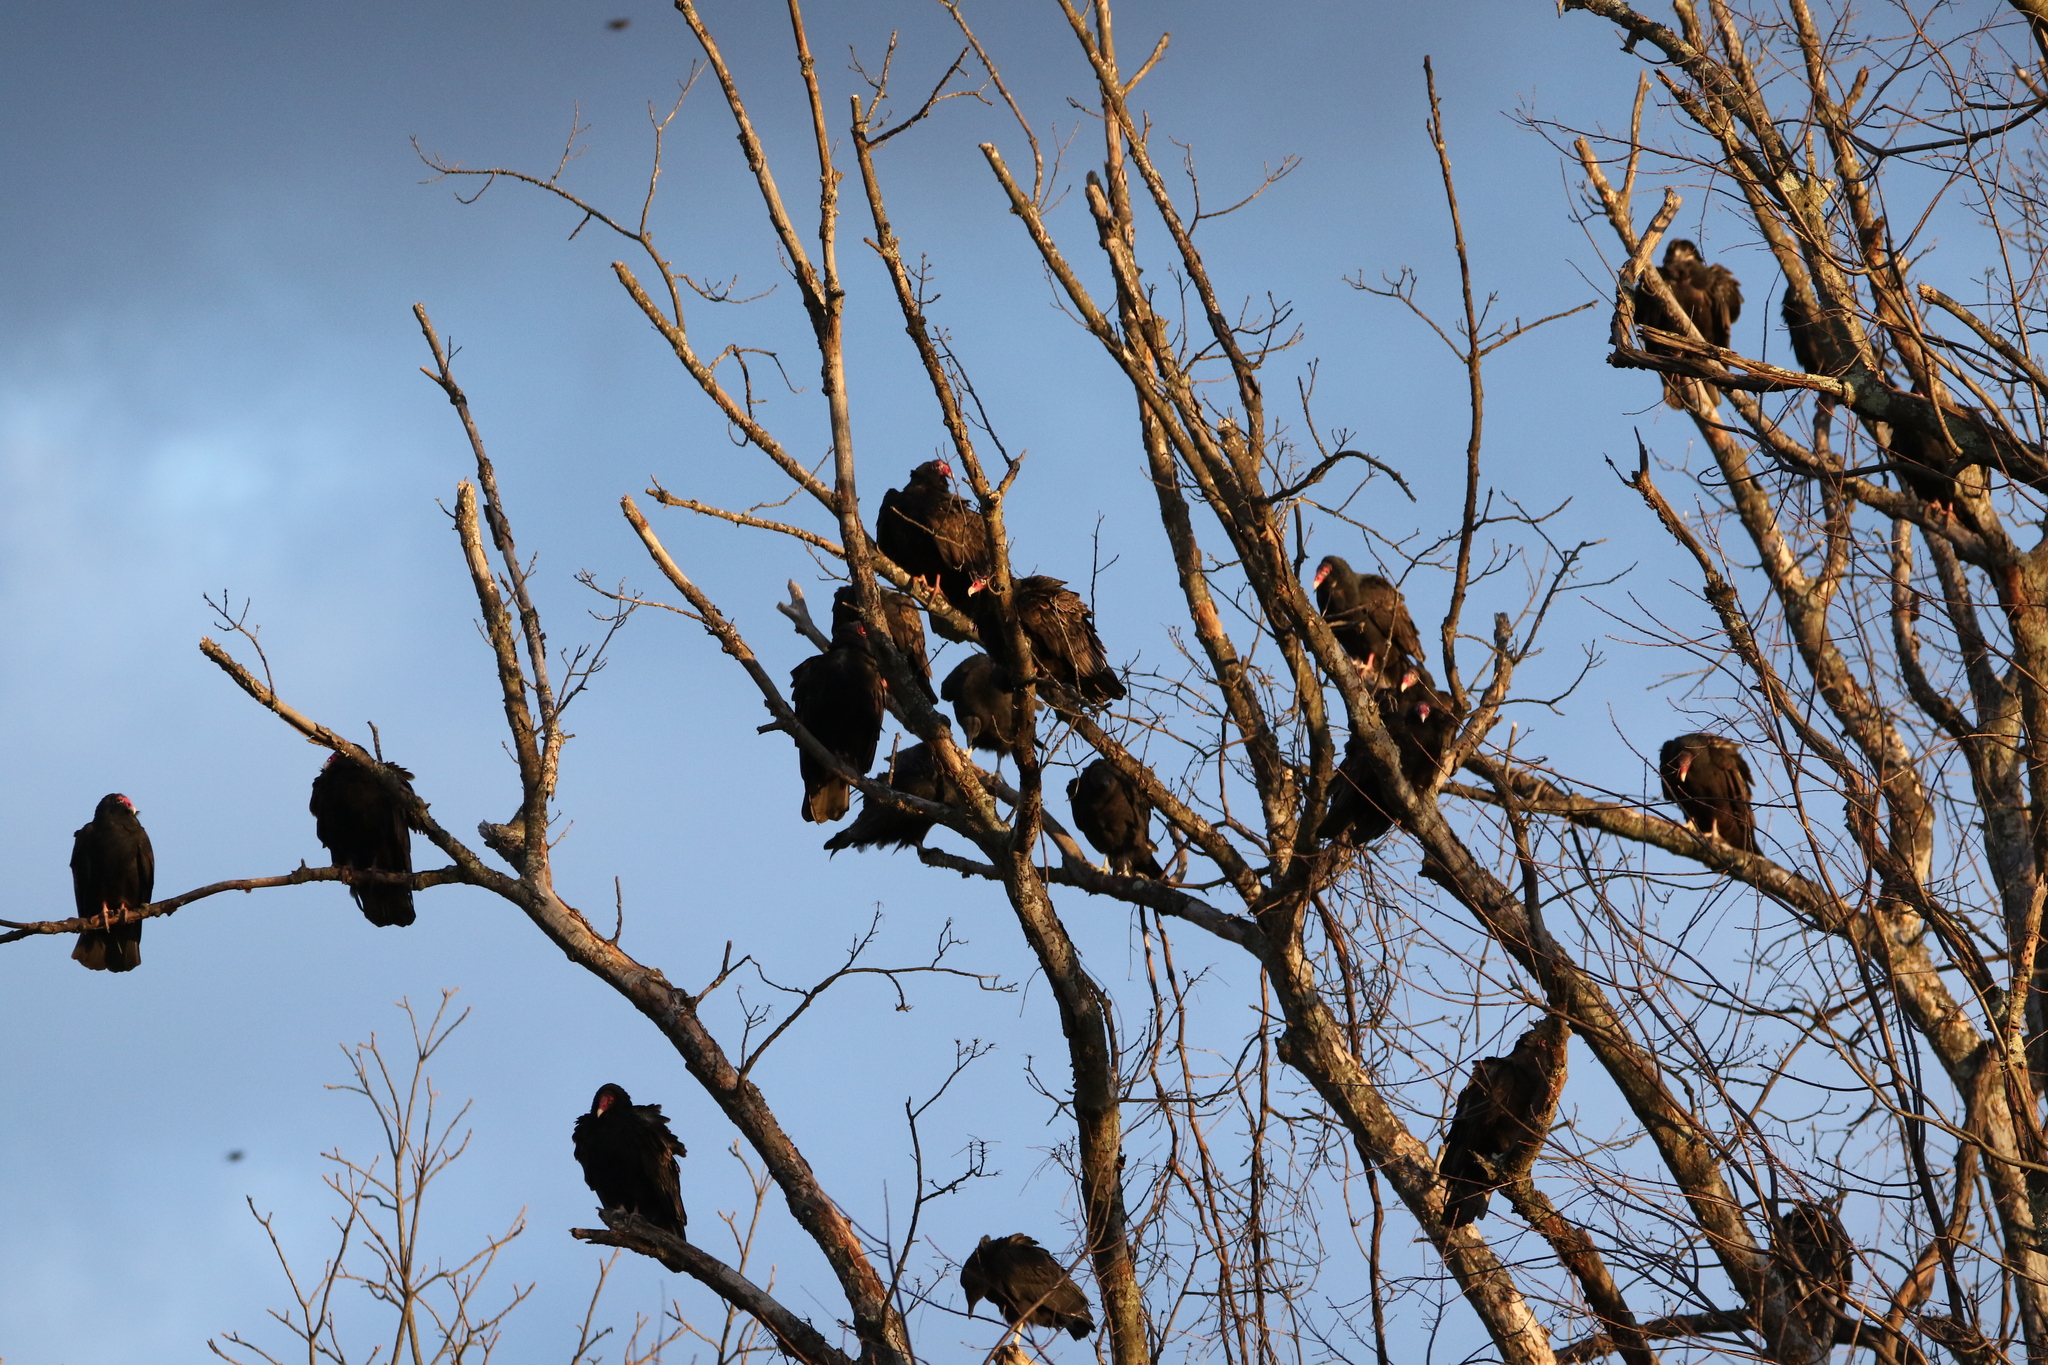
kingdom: Animalia
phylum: Chordata
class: Aves
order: Accipitriformes
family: Cathartidae
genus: Cathartes
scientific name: Cathartes aura
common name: Turkey vulture
